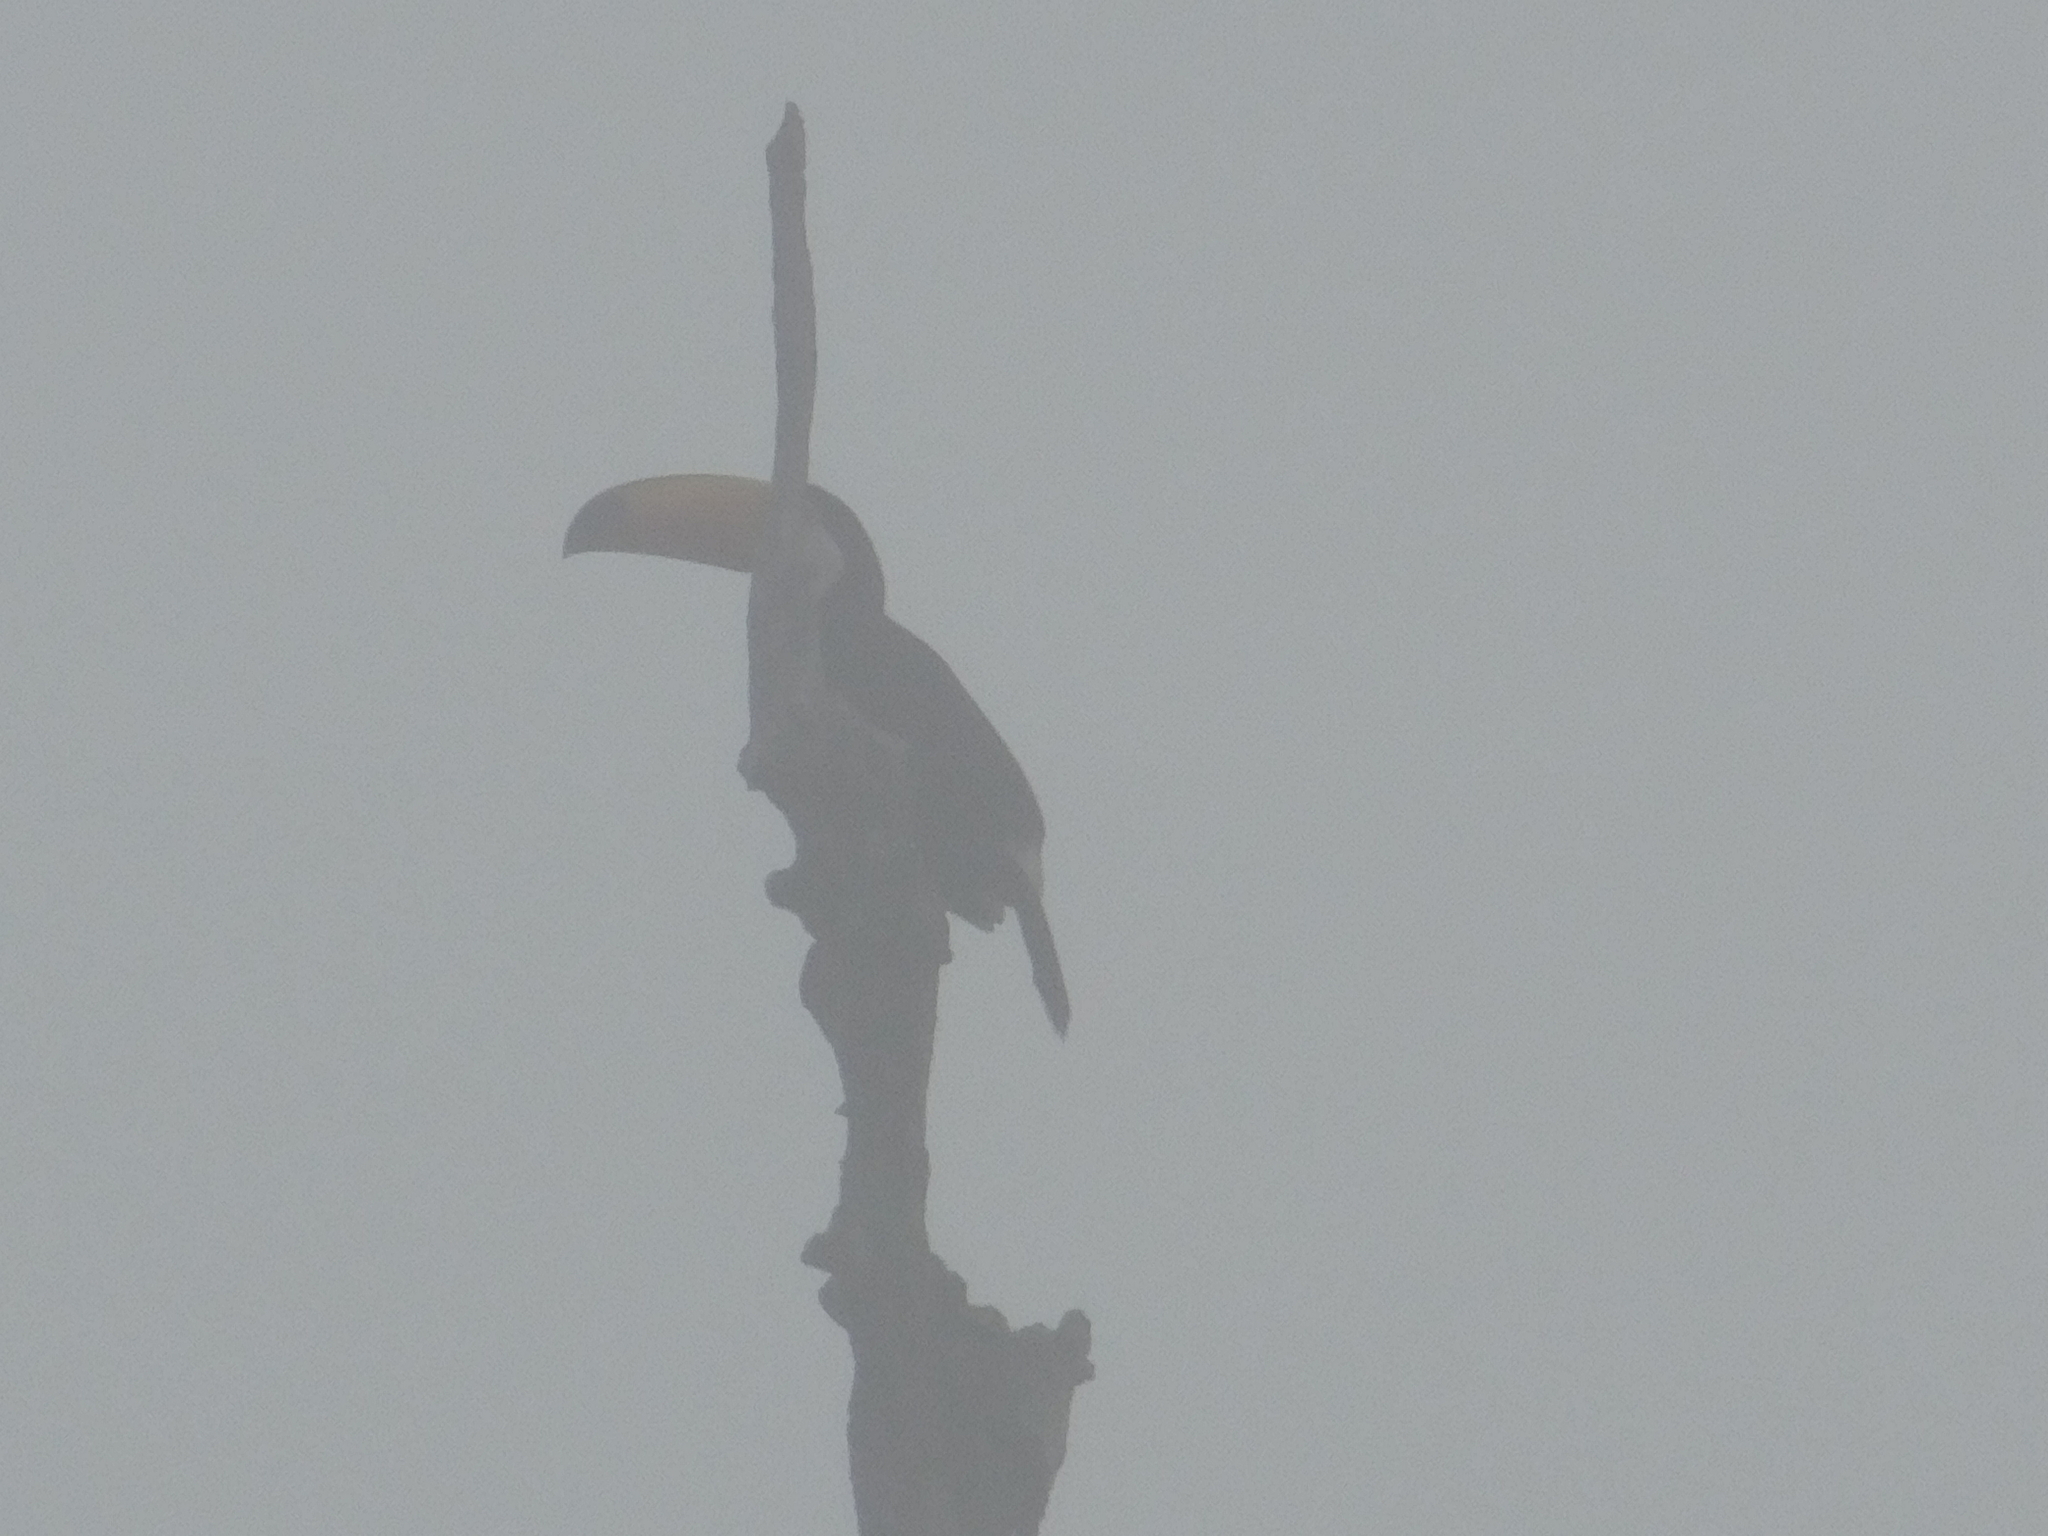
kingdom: Animalia
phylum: Chordata
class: Aves
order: Piciformes
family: Ramphastidae
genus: Ramphastos
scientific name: Ramphastos toco
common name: Toco toucan
